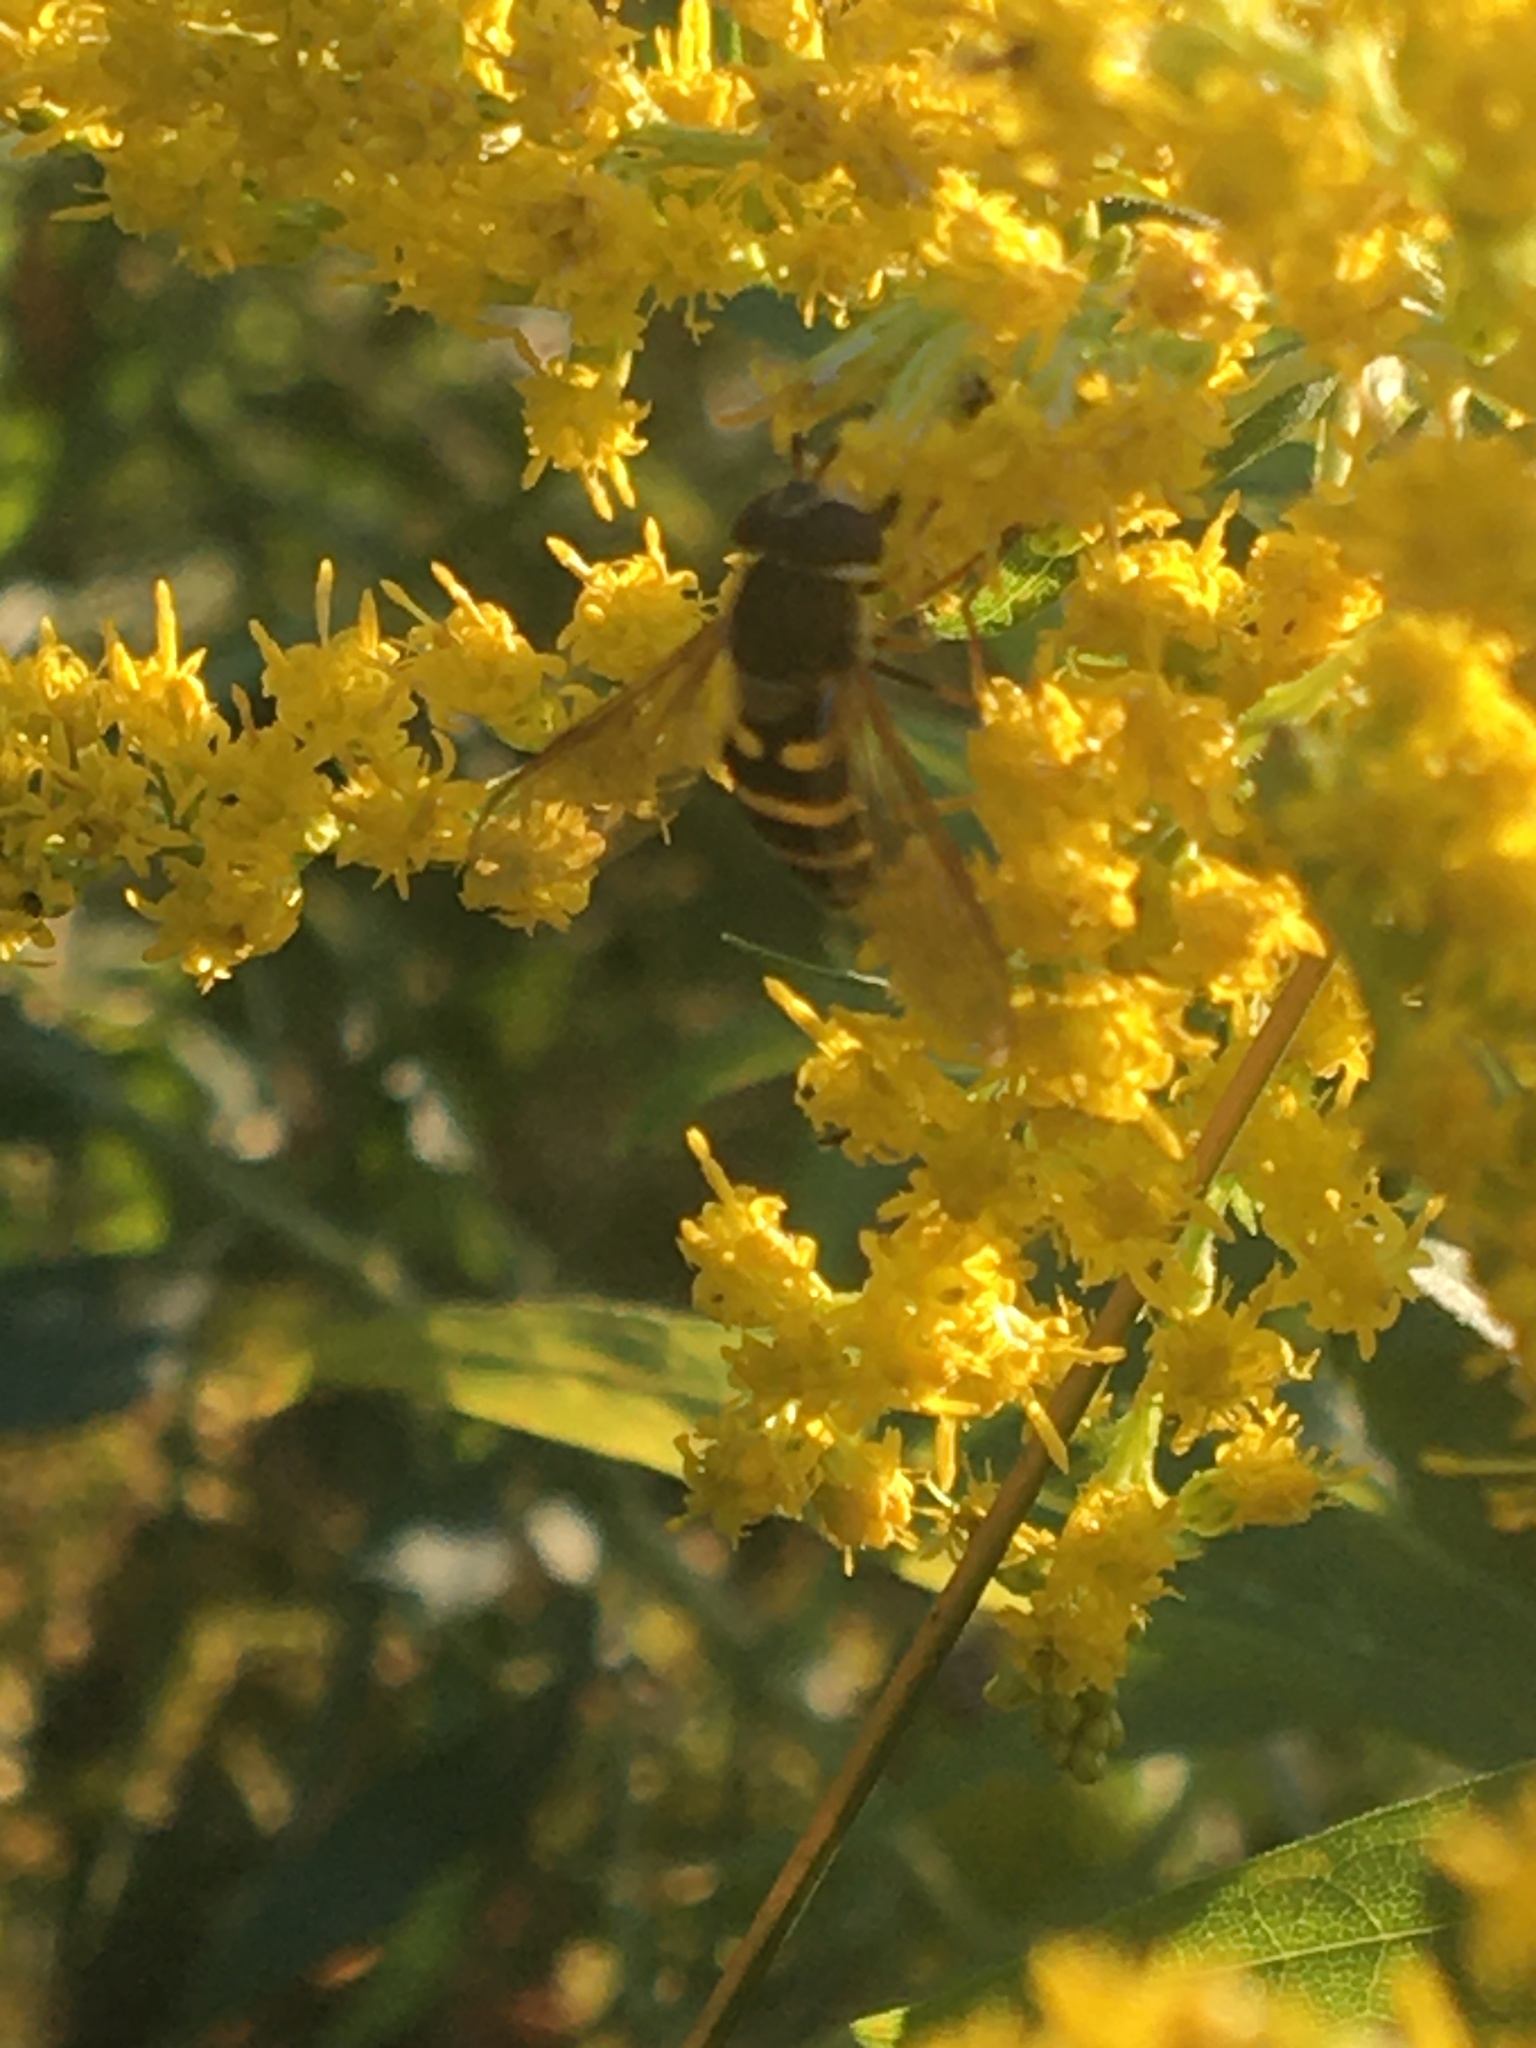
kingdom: Animalia
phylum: Arthropoda
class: Insecta
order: Diptera
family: Syrphidae
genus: Syrphus
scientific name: Syrphus
